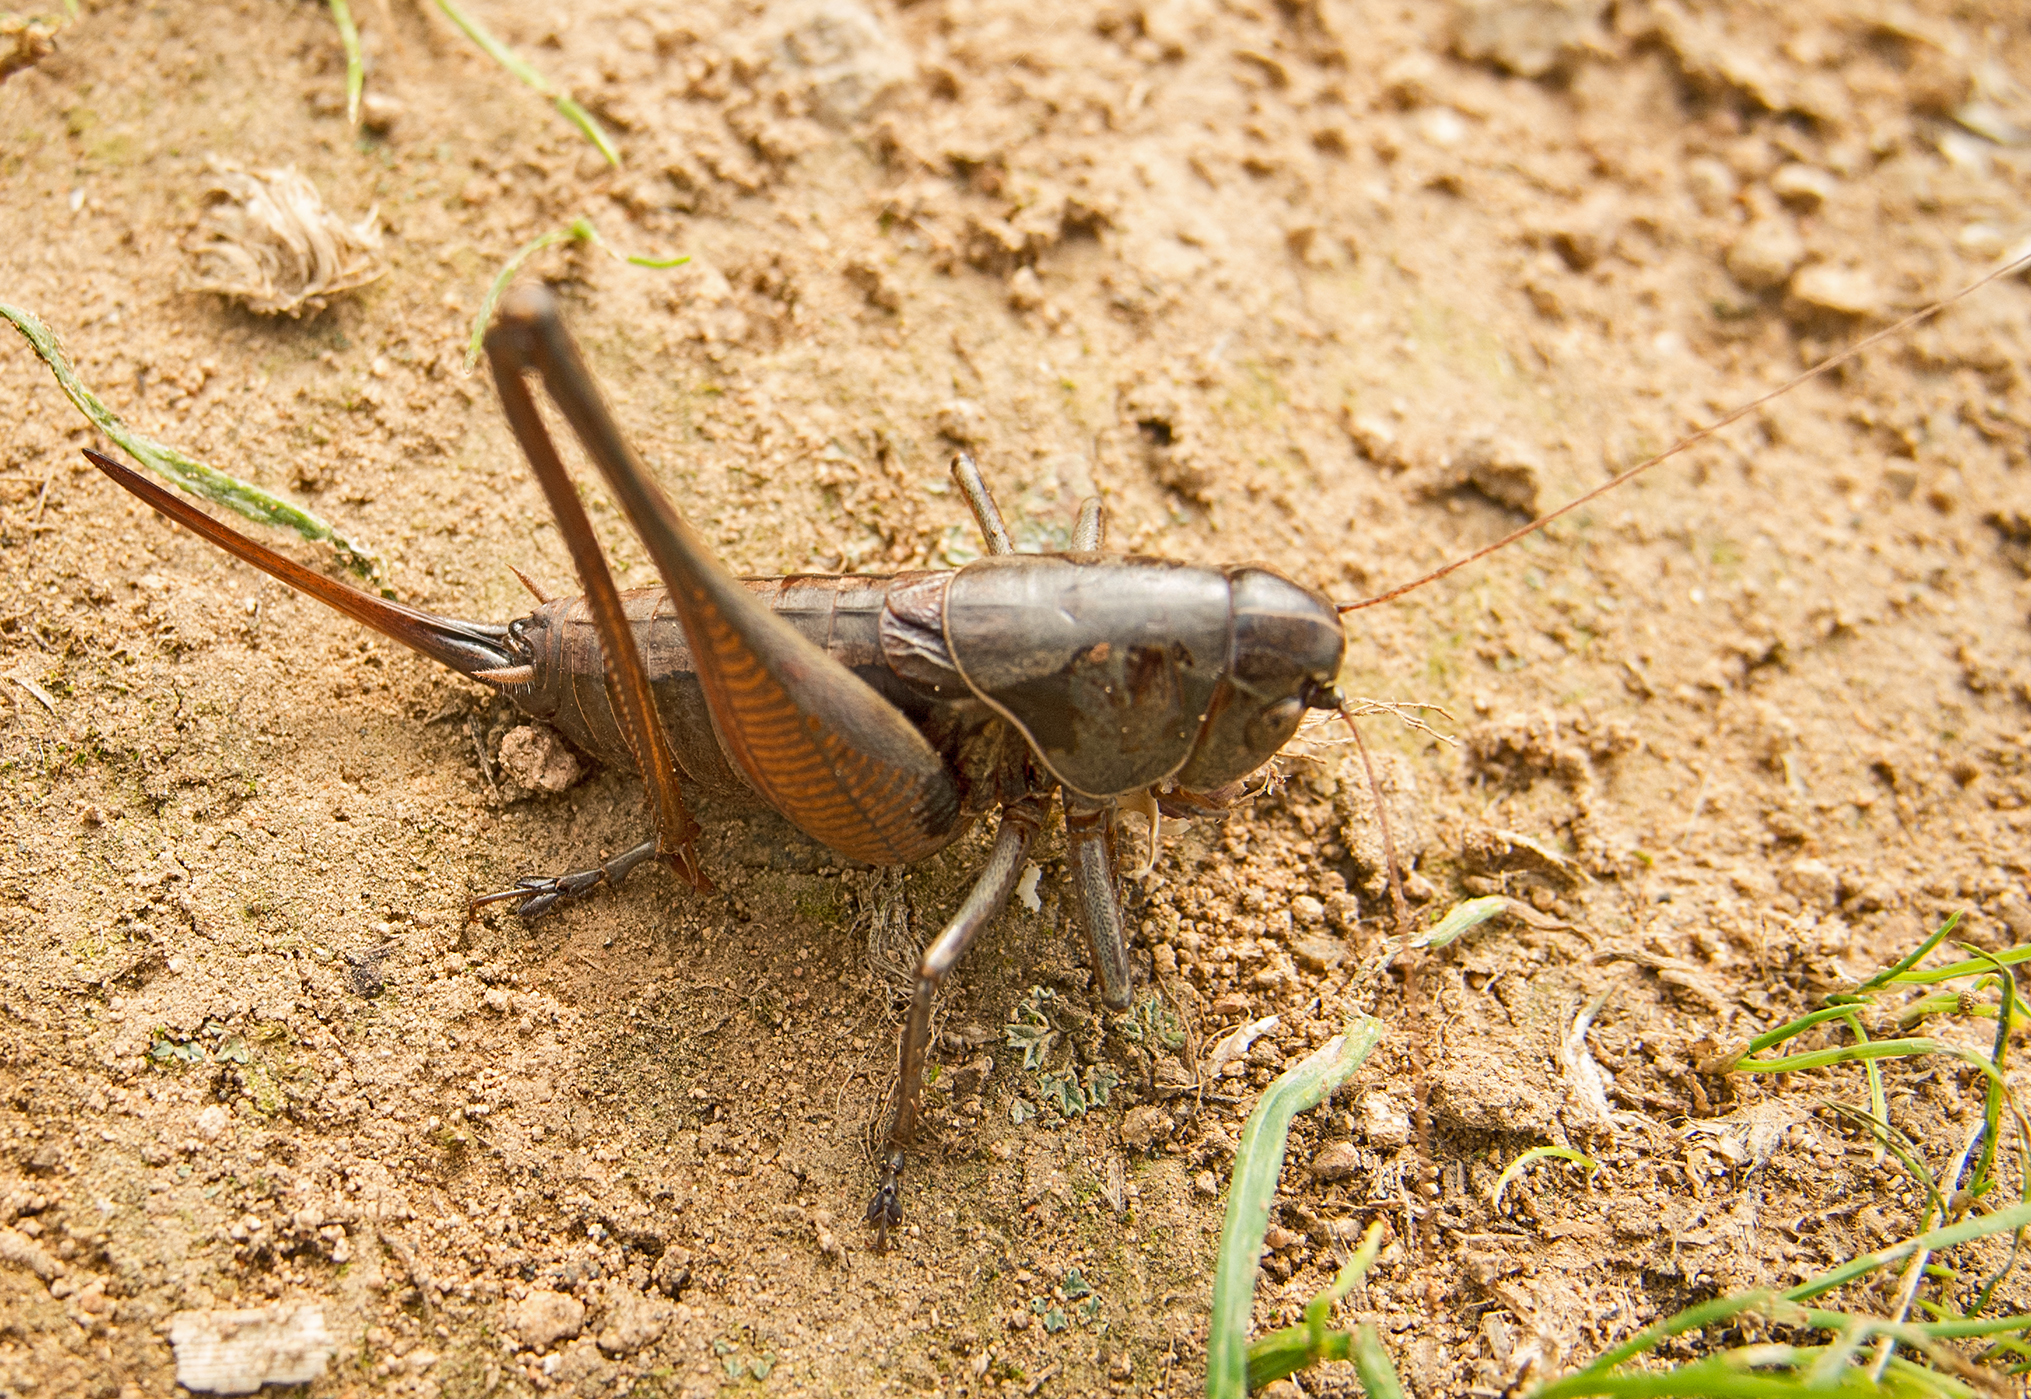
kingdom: Animalia
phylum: Arthropoda
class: Insecta
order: Orthoptera
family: Tettigoniidae
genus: Bucephaloptera
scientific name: Bucephaloptera bucephala
